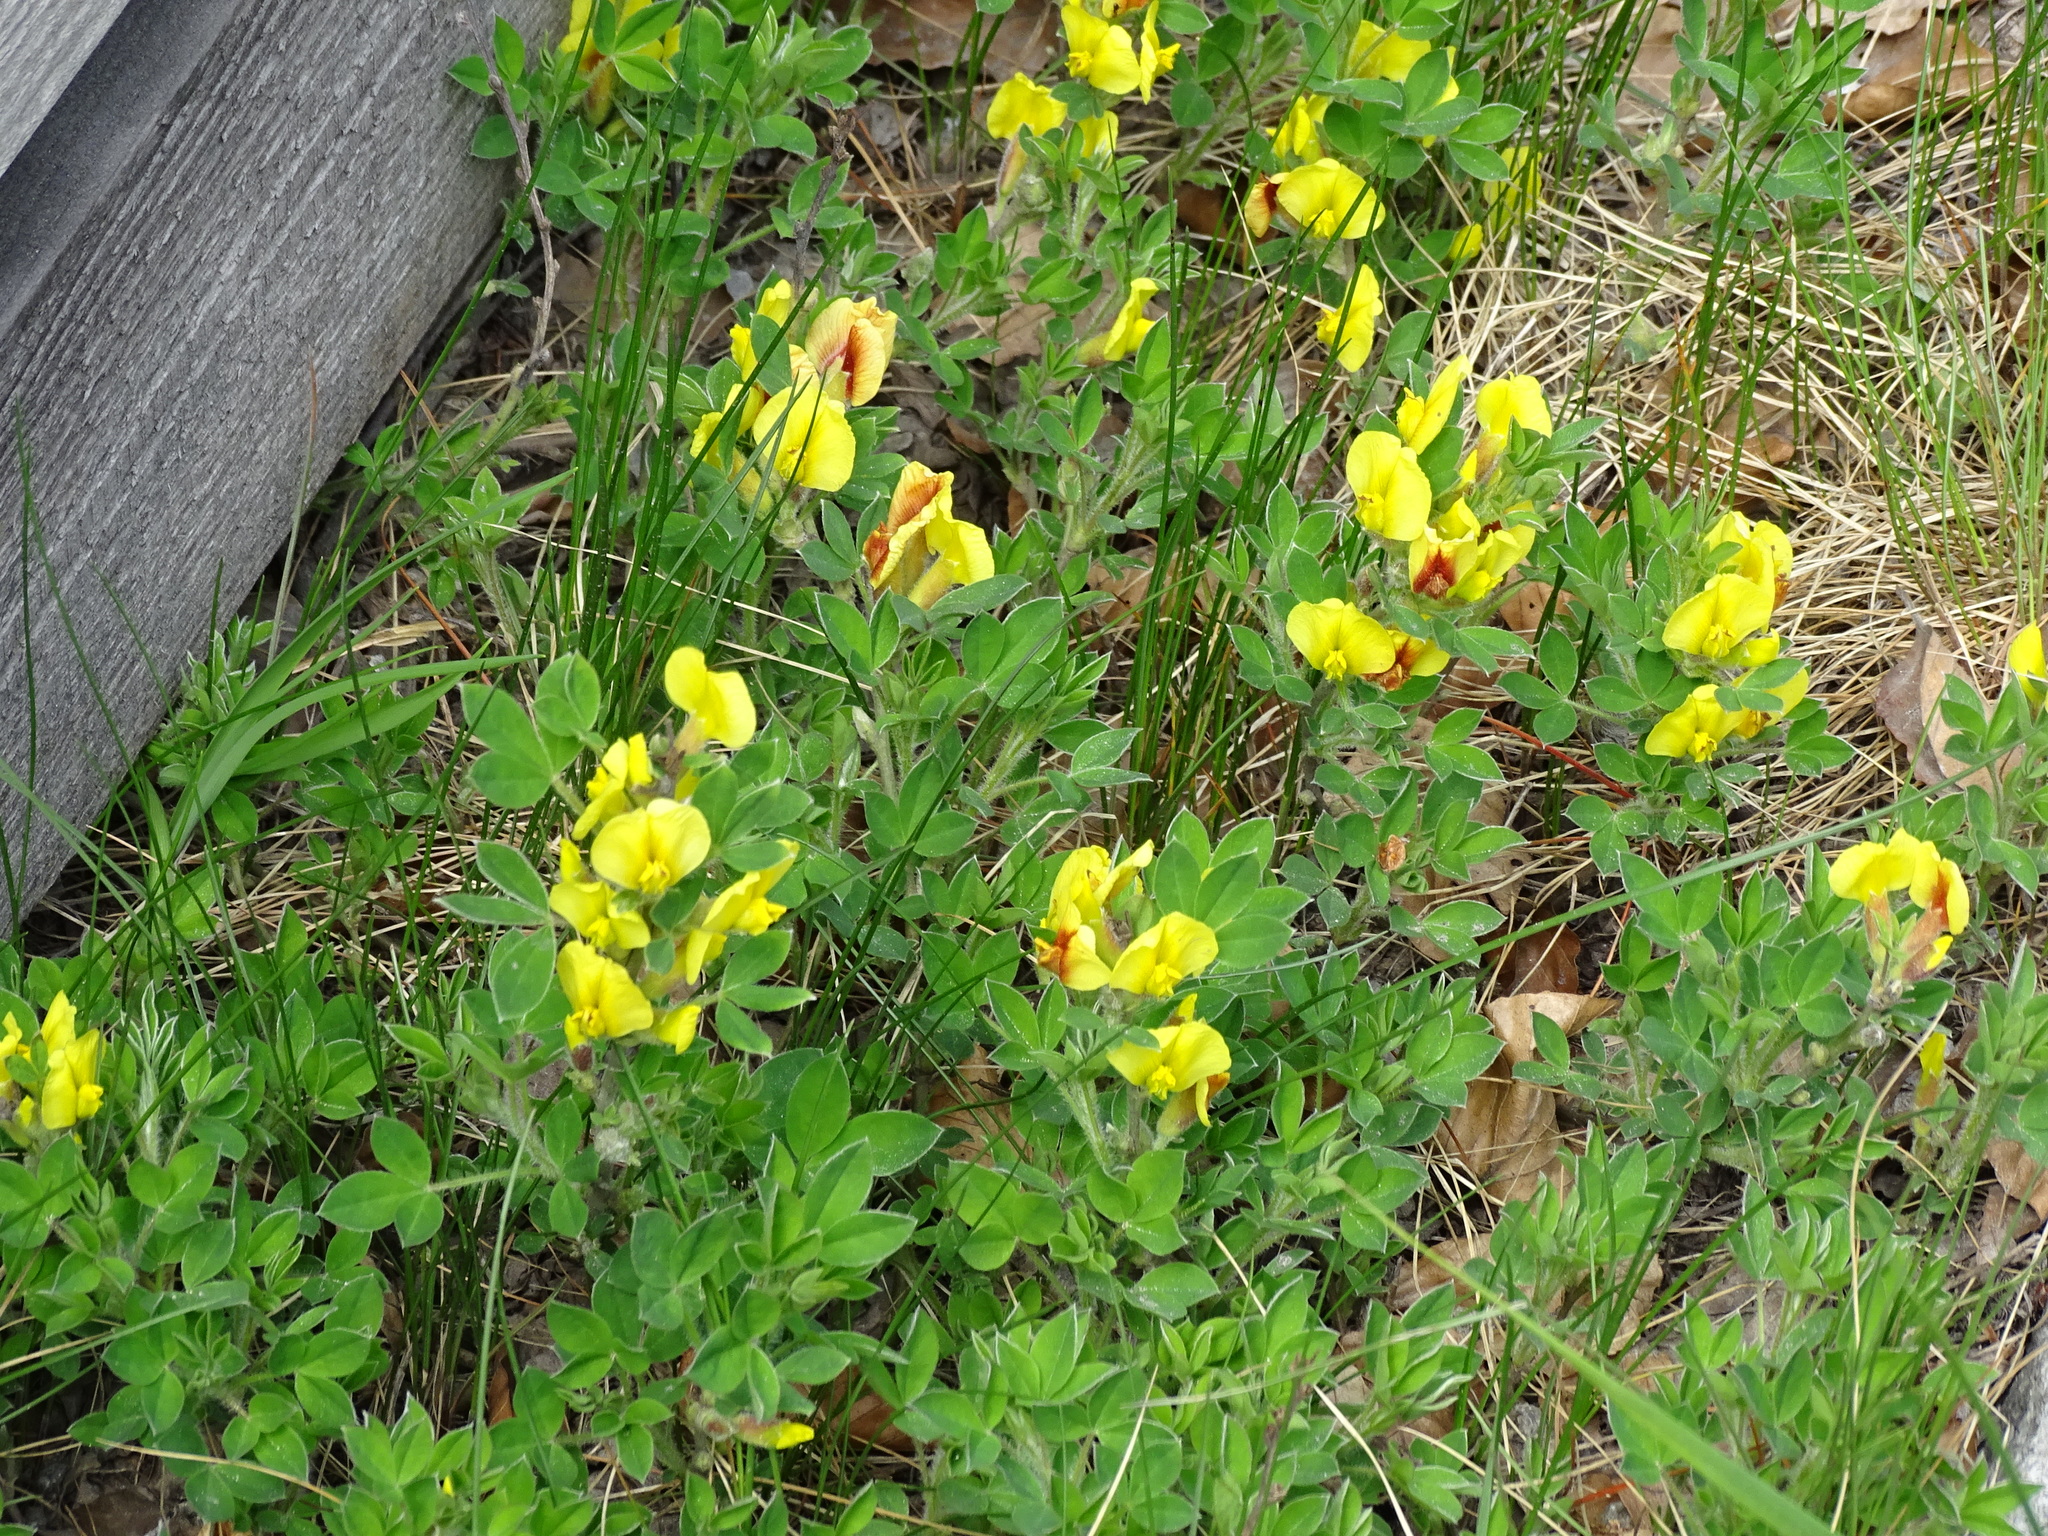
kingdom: Plantae
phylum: Tracheophyta
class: Magnoliopsida
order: Fabales
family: Fabaceae
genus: Chamaecytisus
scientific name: Chamaecytisus hirsutus
